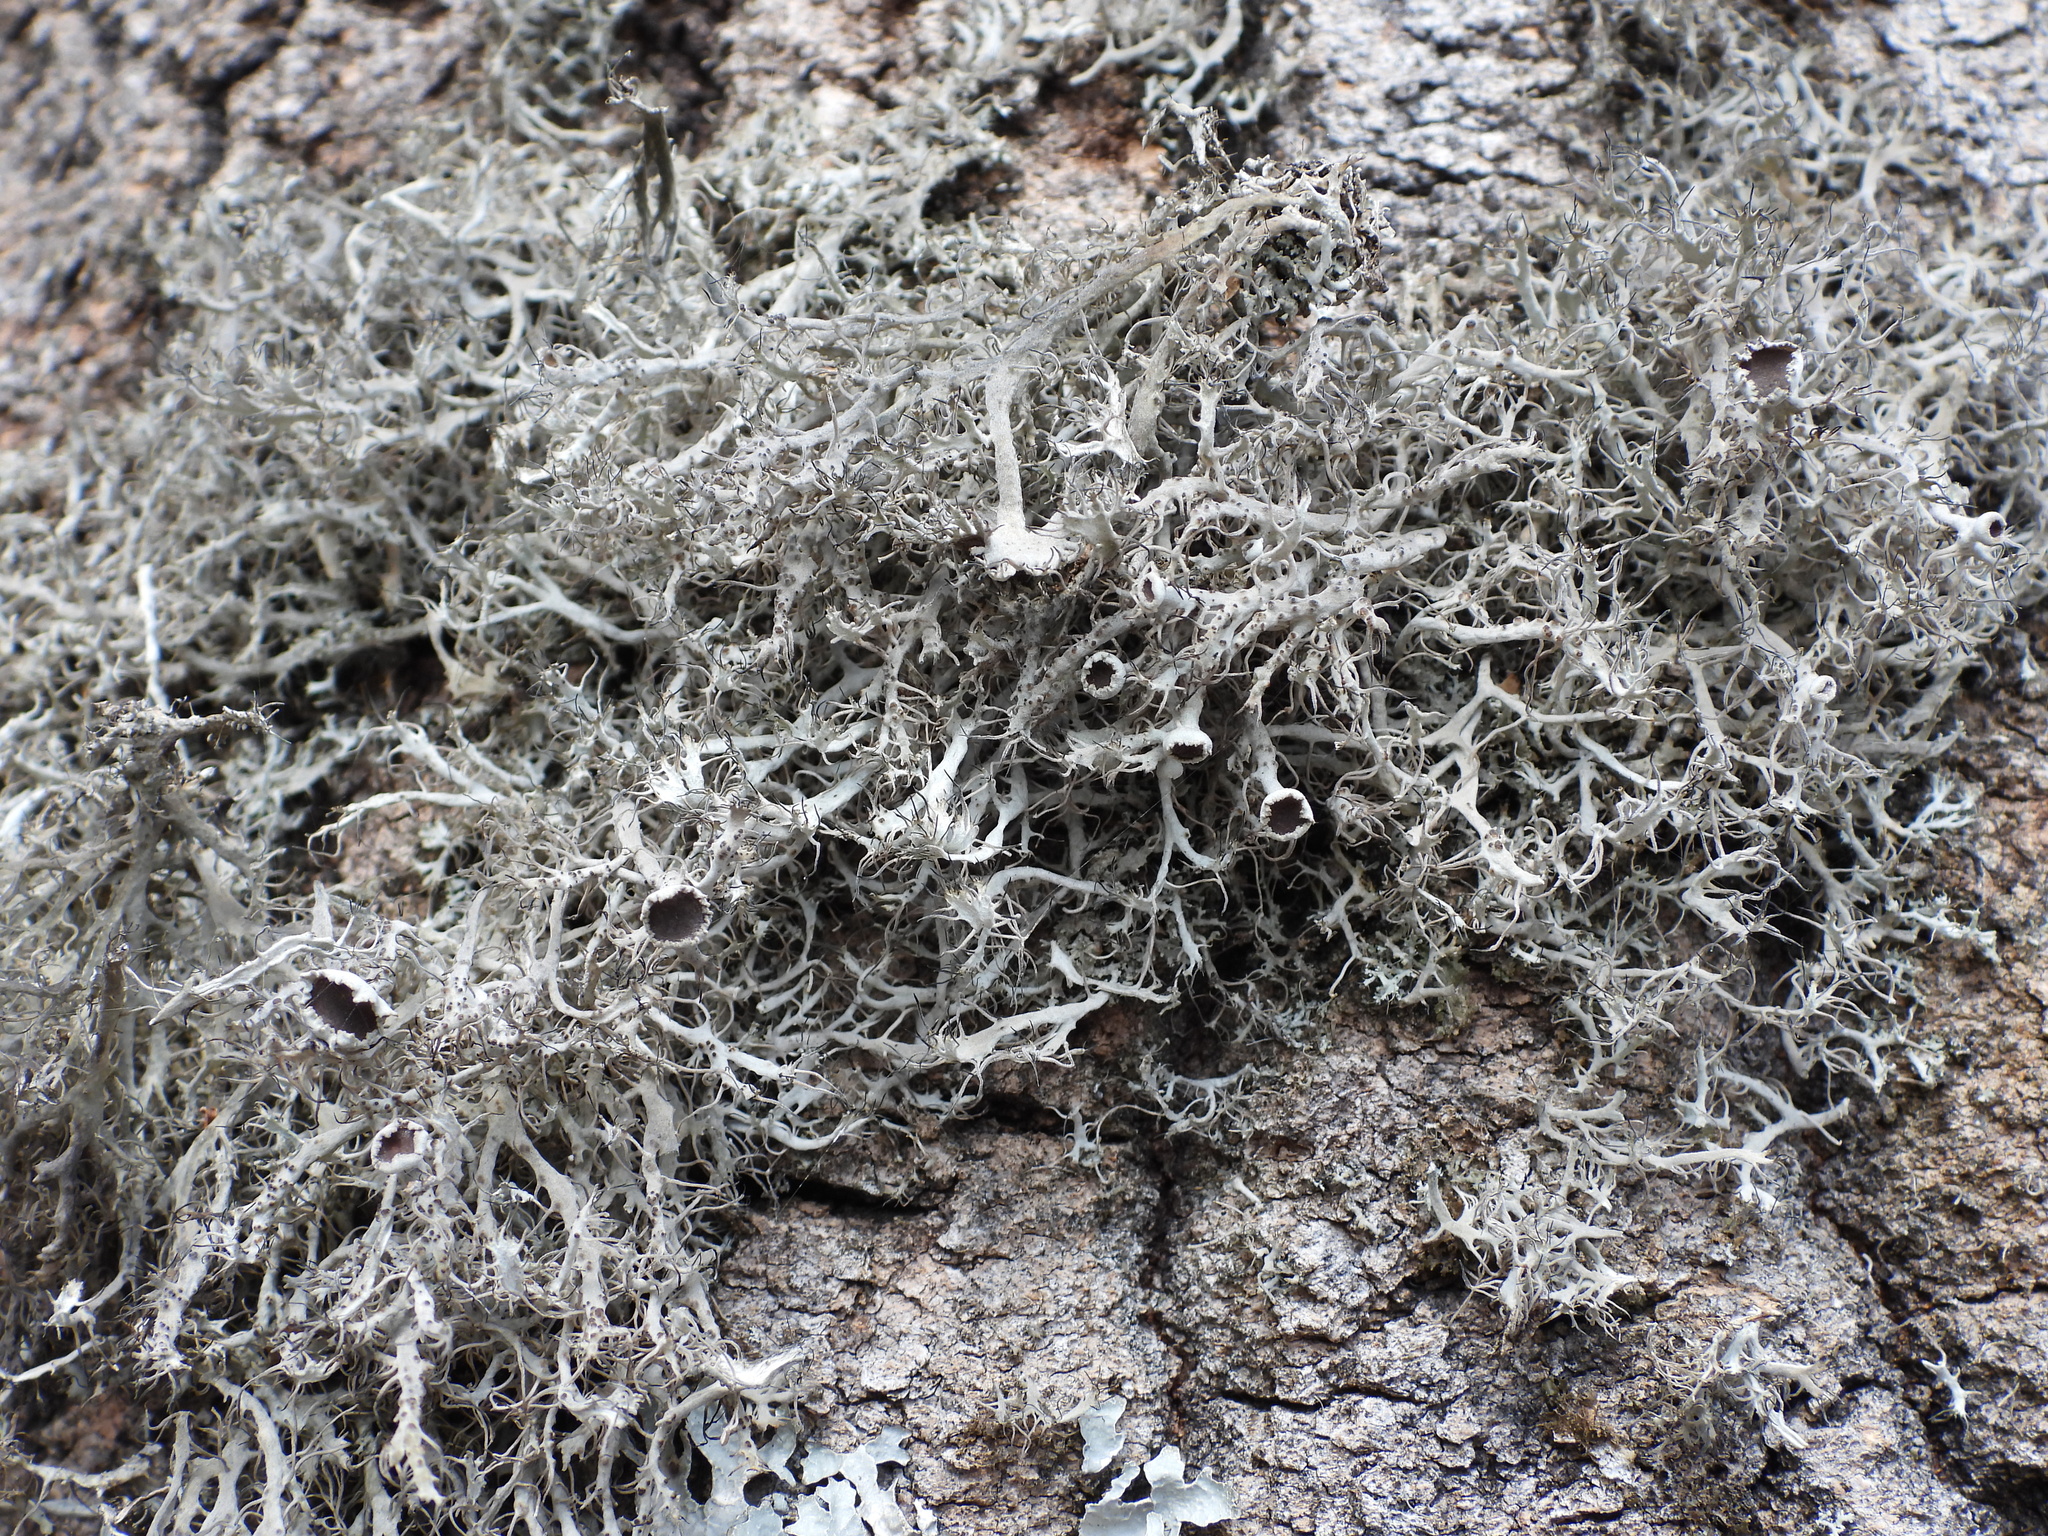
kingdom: Fungi
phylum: Ascomycota
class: Lecanoromycetes
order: Caliciales
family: Physciaceae
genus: Anaptychia
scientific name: Anaptychia ciliaris
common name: Great ciliated lichen
